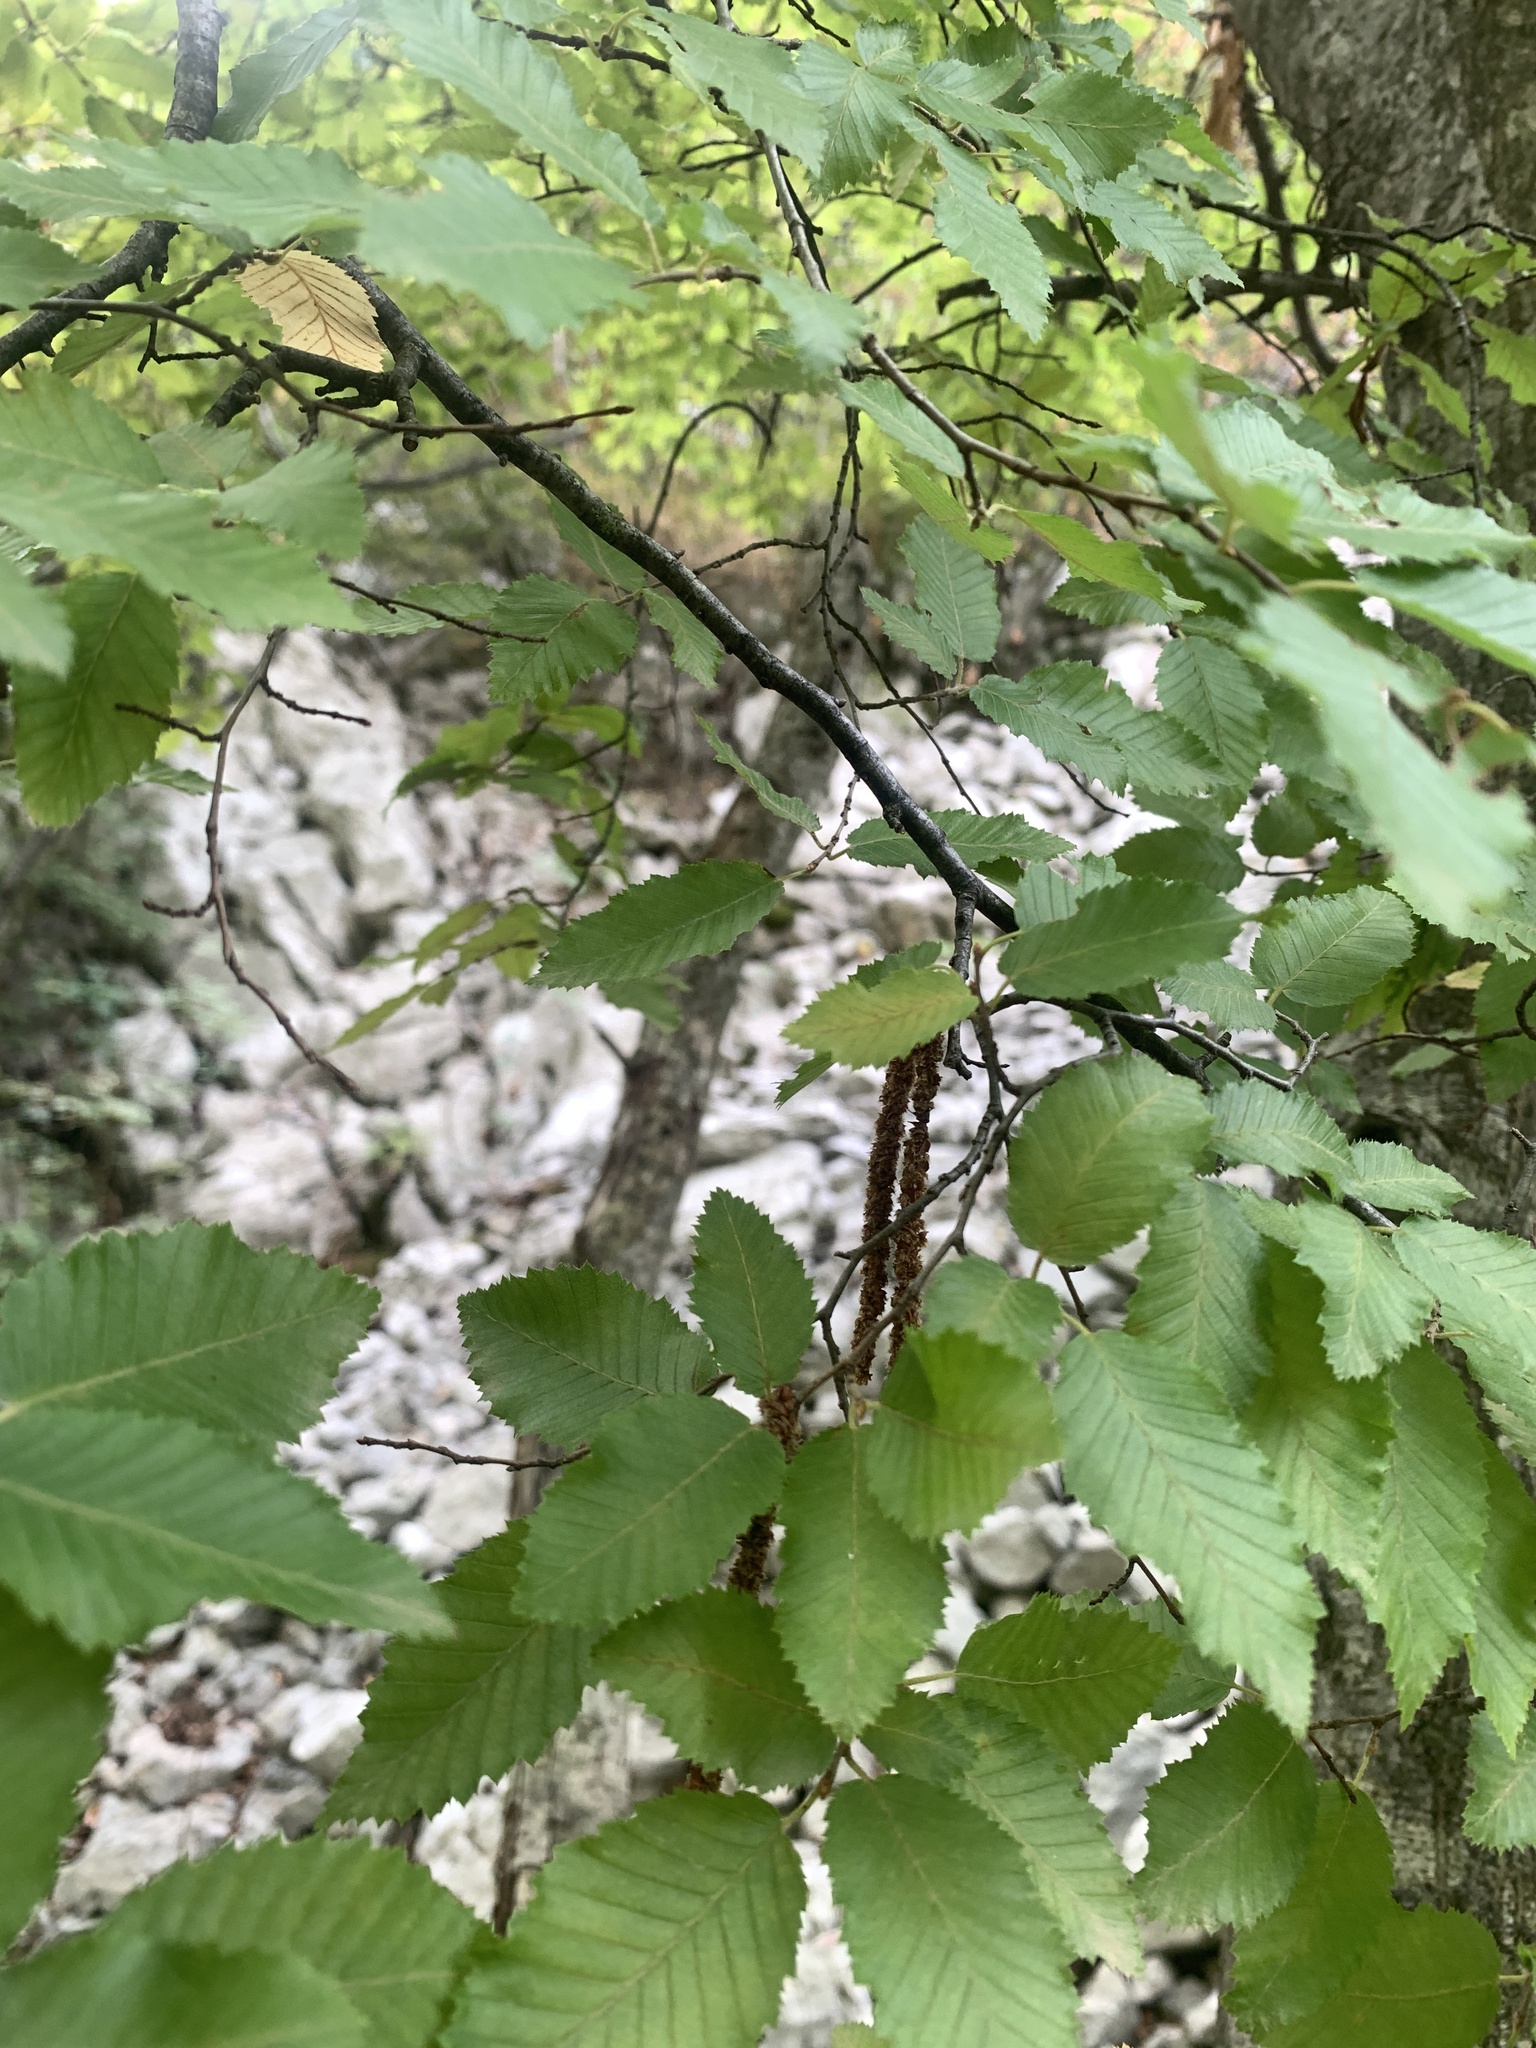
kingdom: Plantae
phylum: Tracheophyta
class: Magnoliopsida
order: Fagales
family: Betulaceae
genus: Carpinus
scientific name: Carpinus orientalis
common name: Eastern hornbeam
